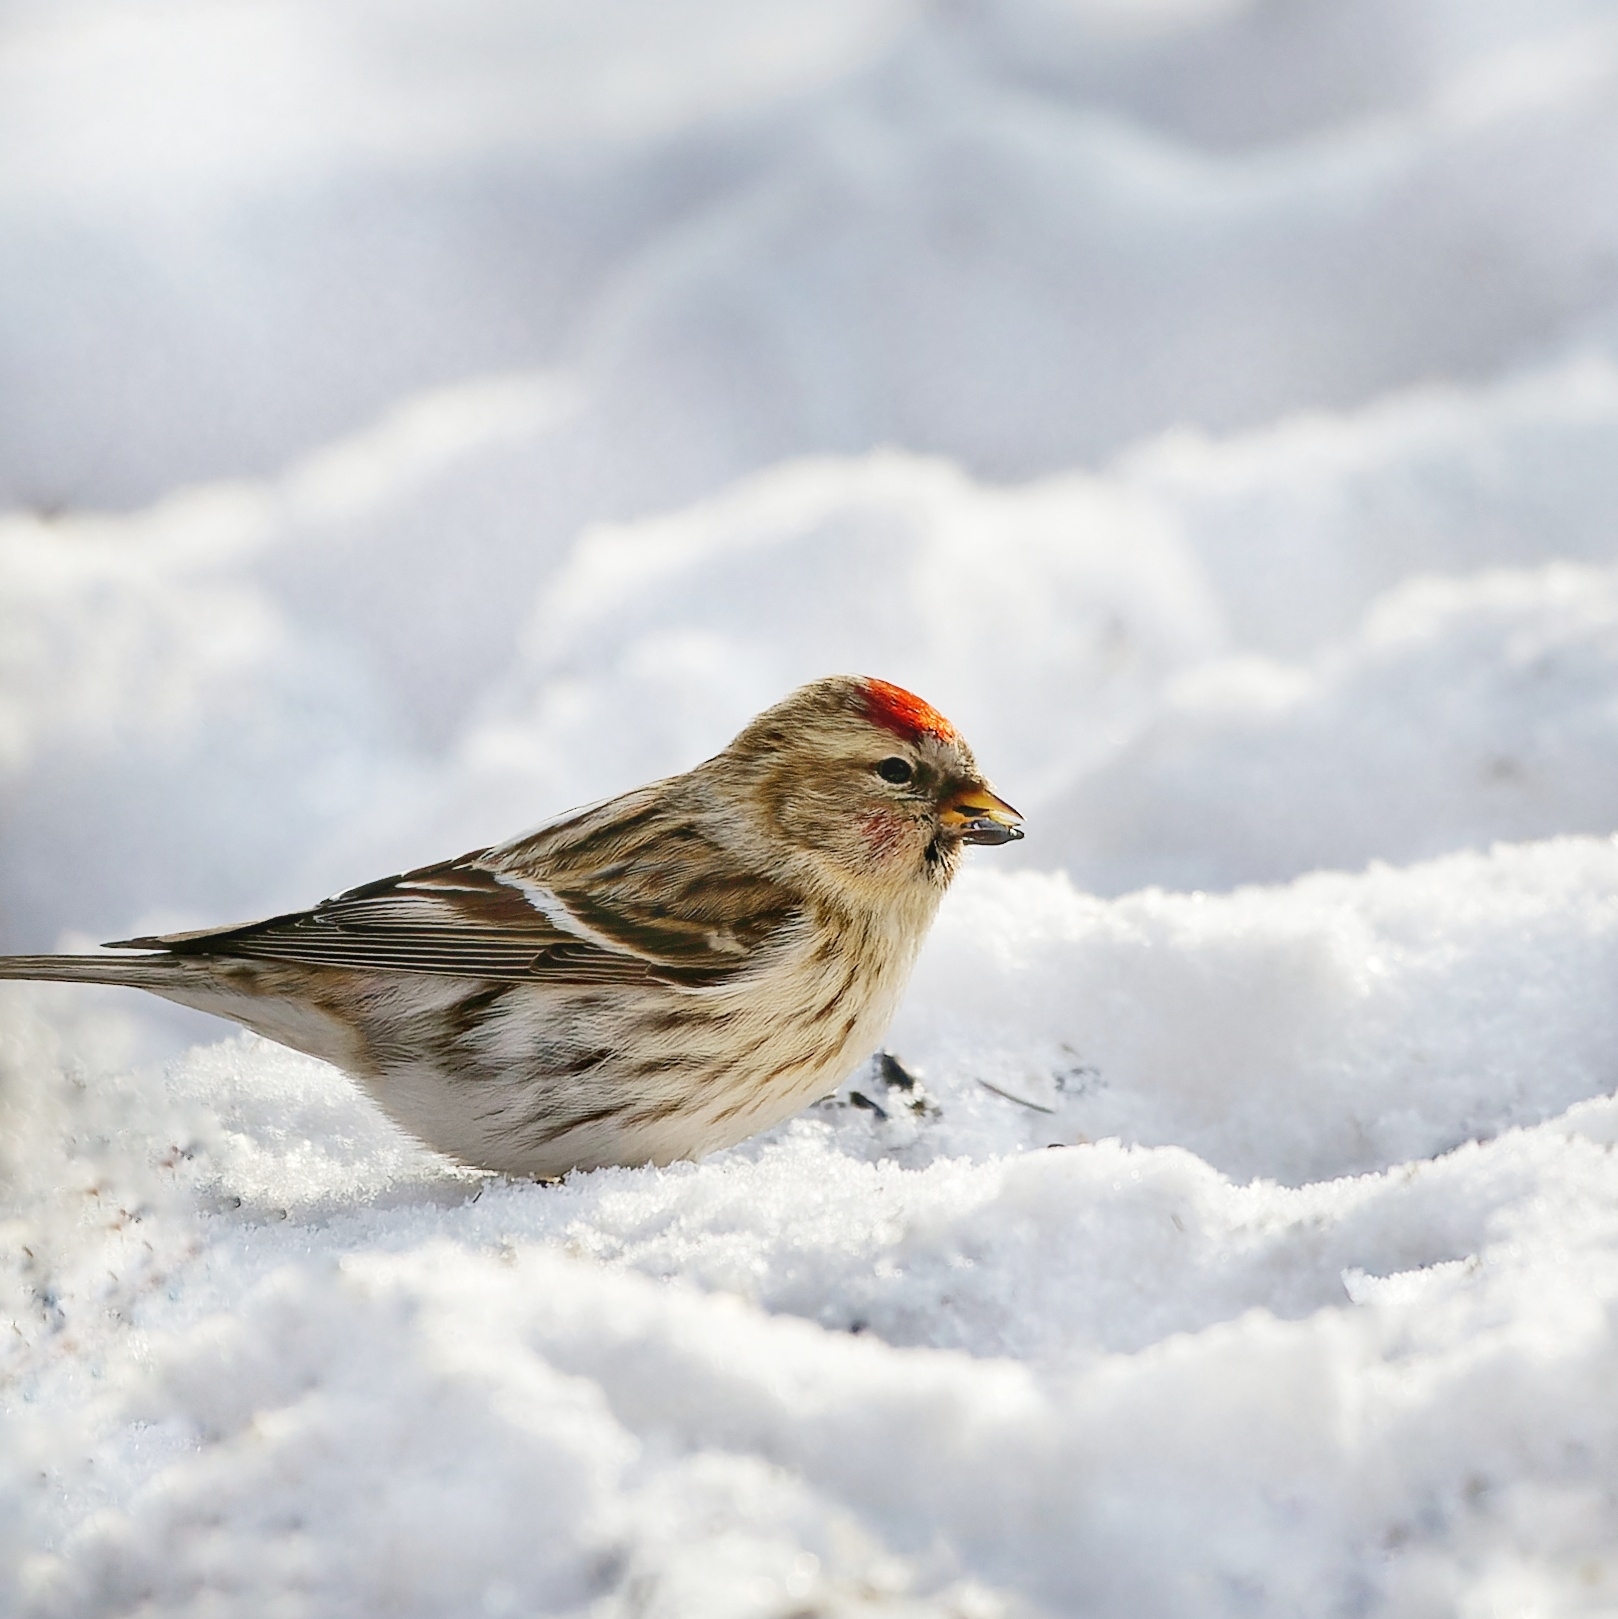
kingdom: Animalia
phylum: Chordata
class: Aves
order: Passeriformes
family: Fringillidae
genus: Acanthis
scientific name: Acanthis flammea
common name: Common redpoll
